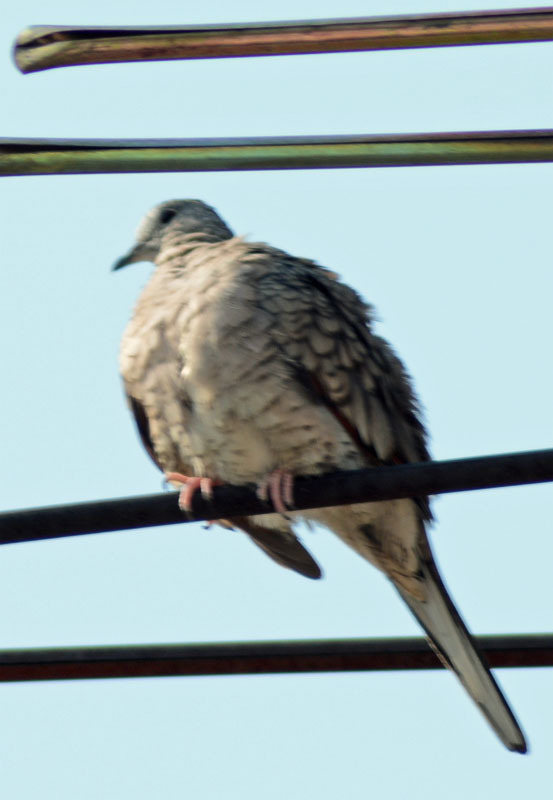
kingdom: Animalia
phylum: Chordata
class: Aves
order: Columbiformes
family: Columbidae
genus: Columbina
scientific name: Columbina inca
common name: Inca dove
